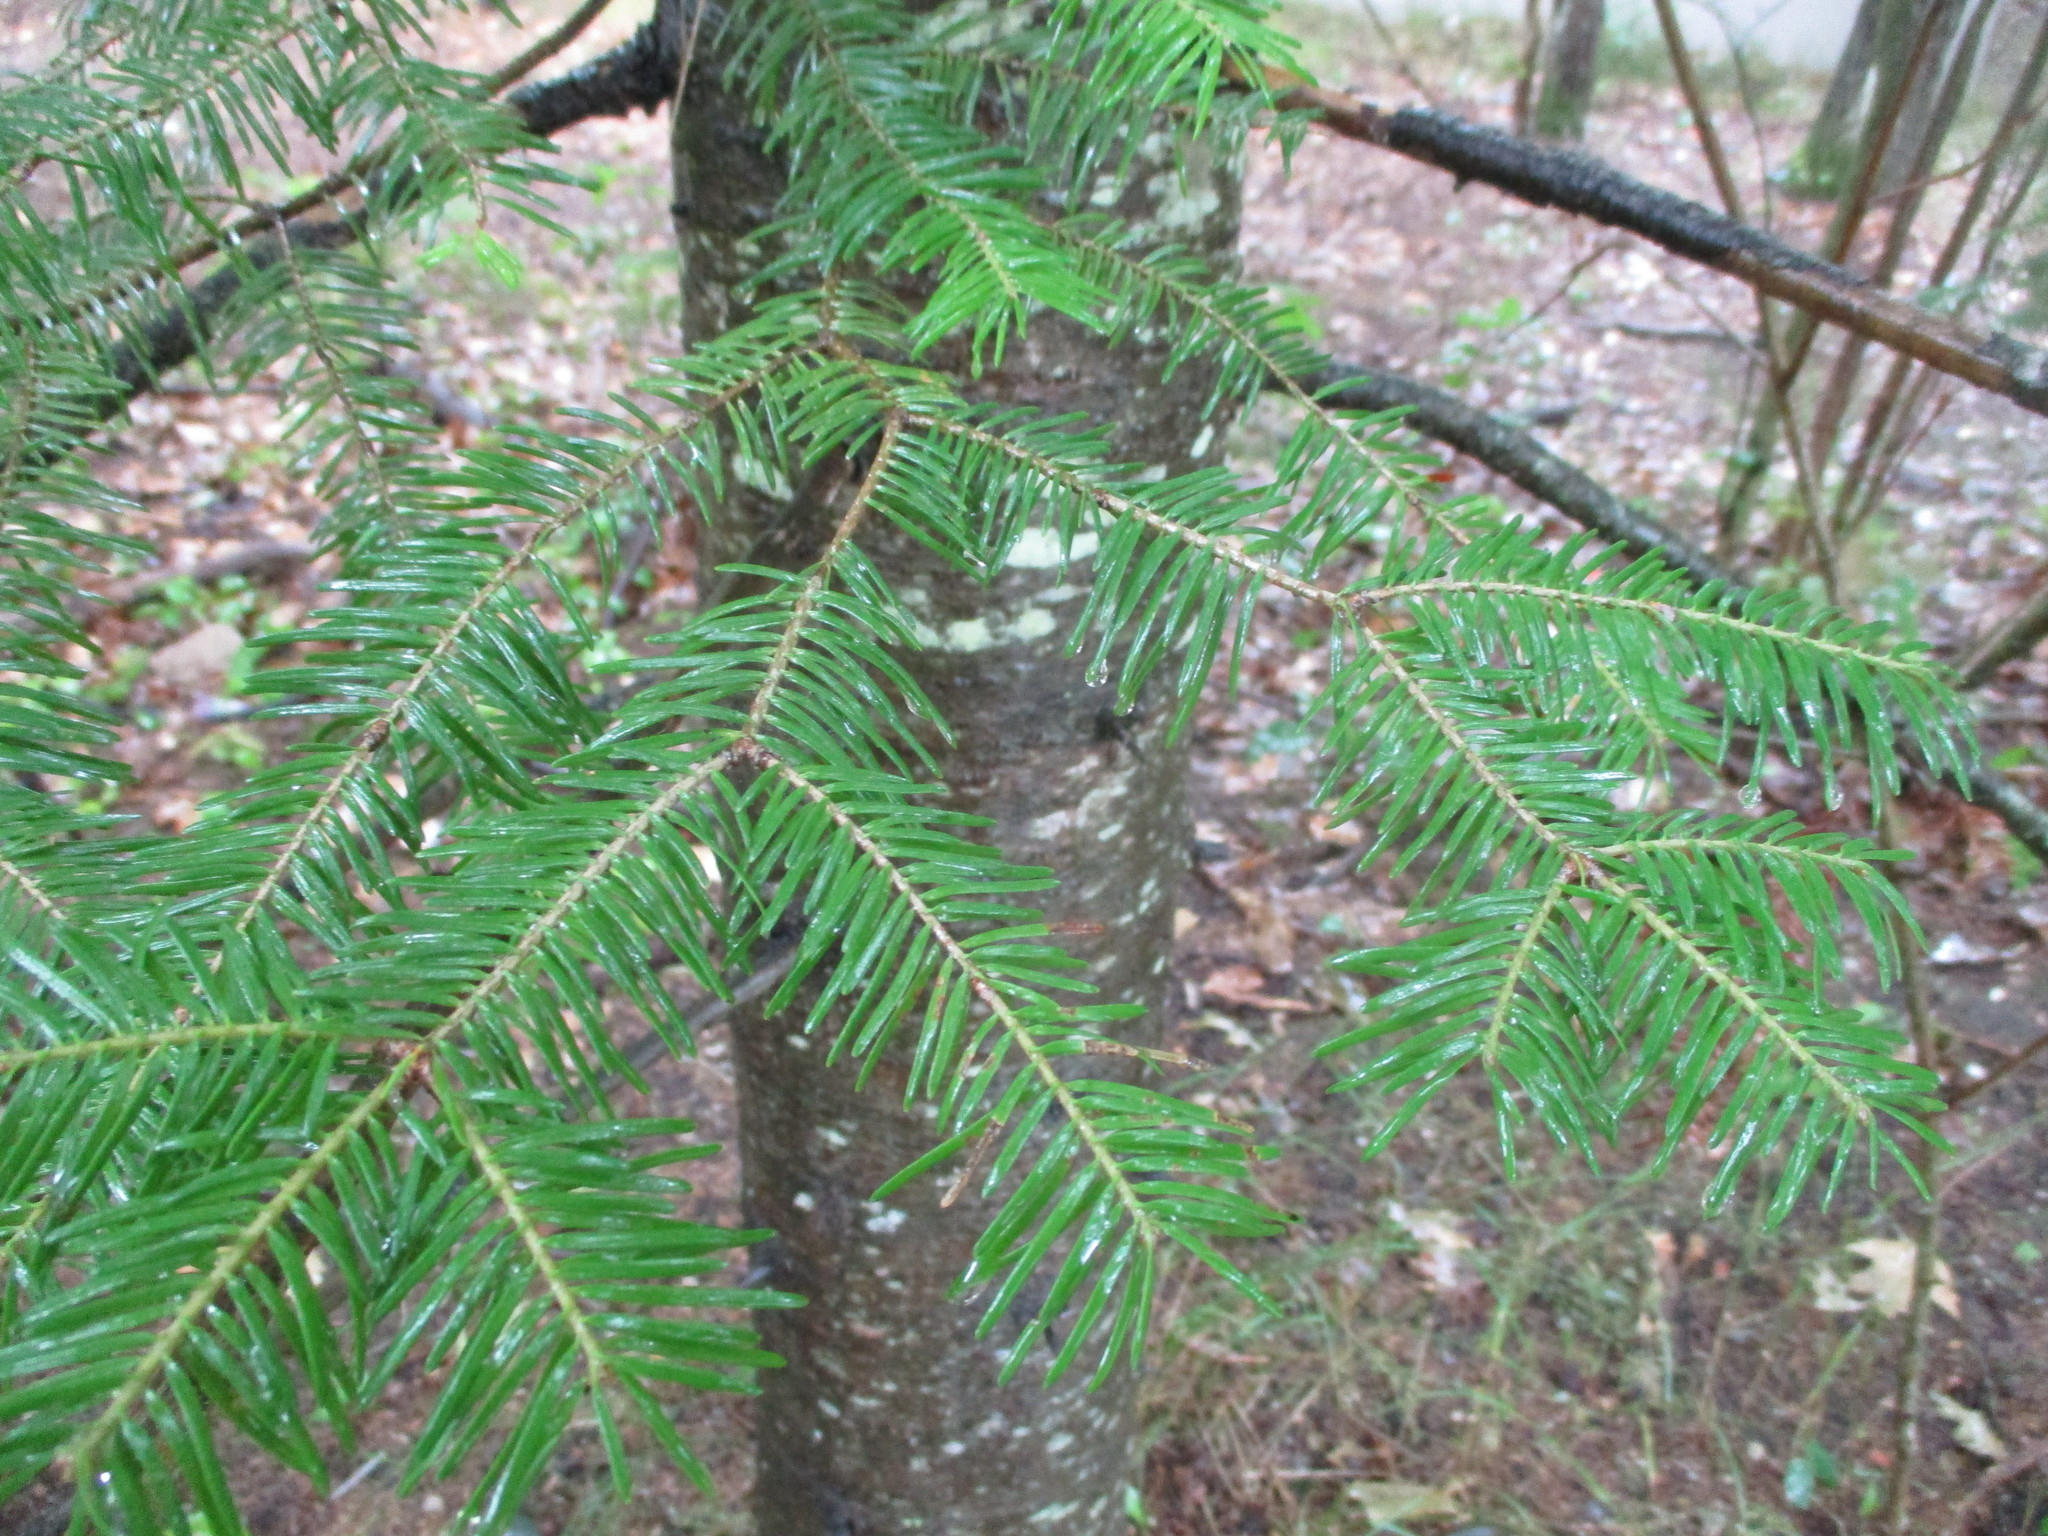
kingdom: Plantae
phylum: Tracheophyta
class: Pinopsida
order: Pinales
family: Pinaceae
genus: Abies
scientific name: Abies balsamea
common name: Balsam fir
